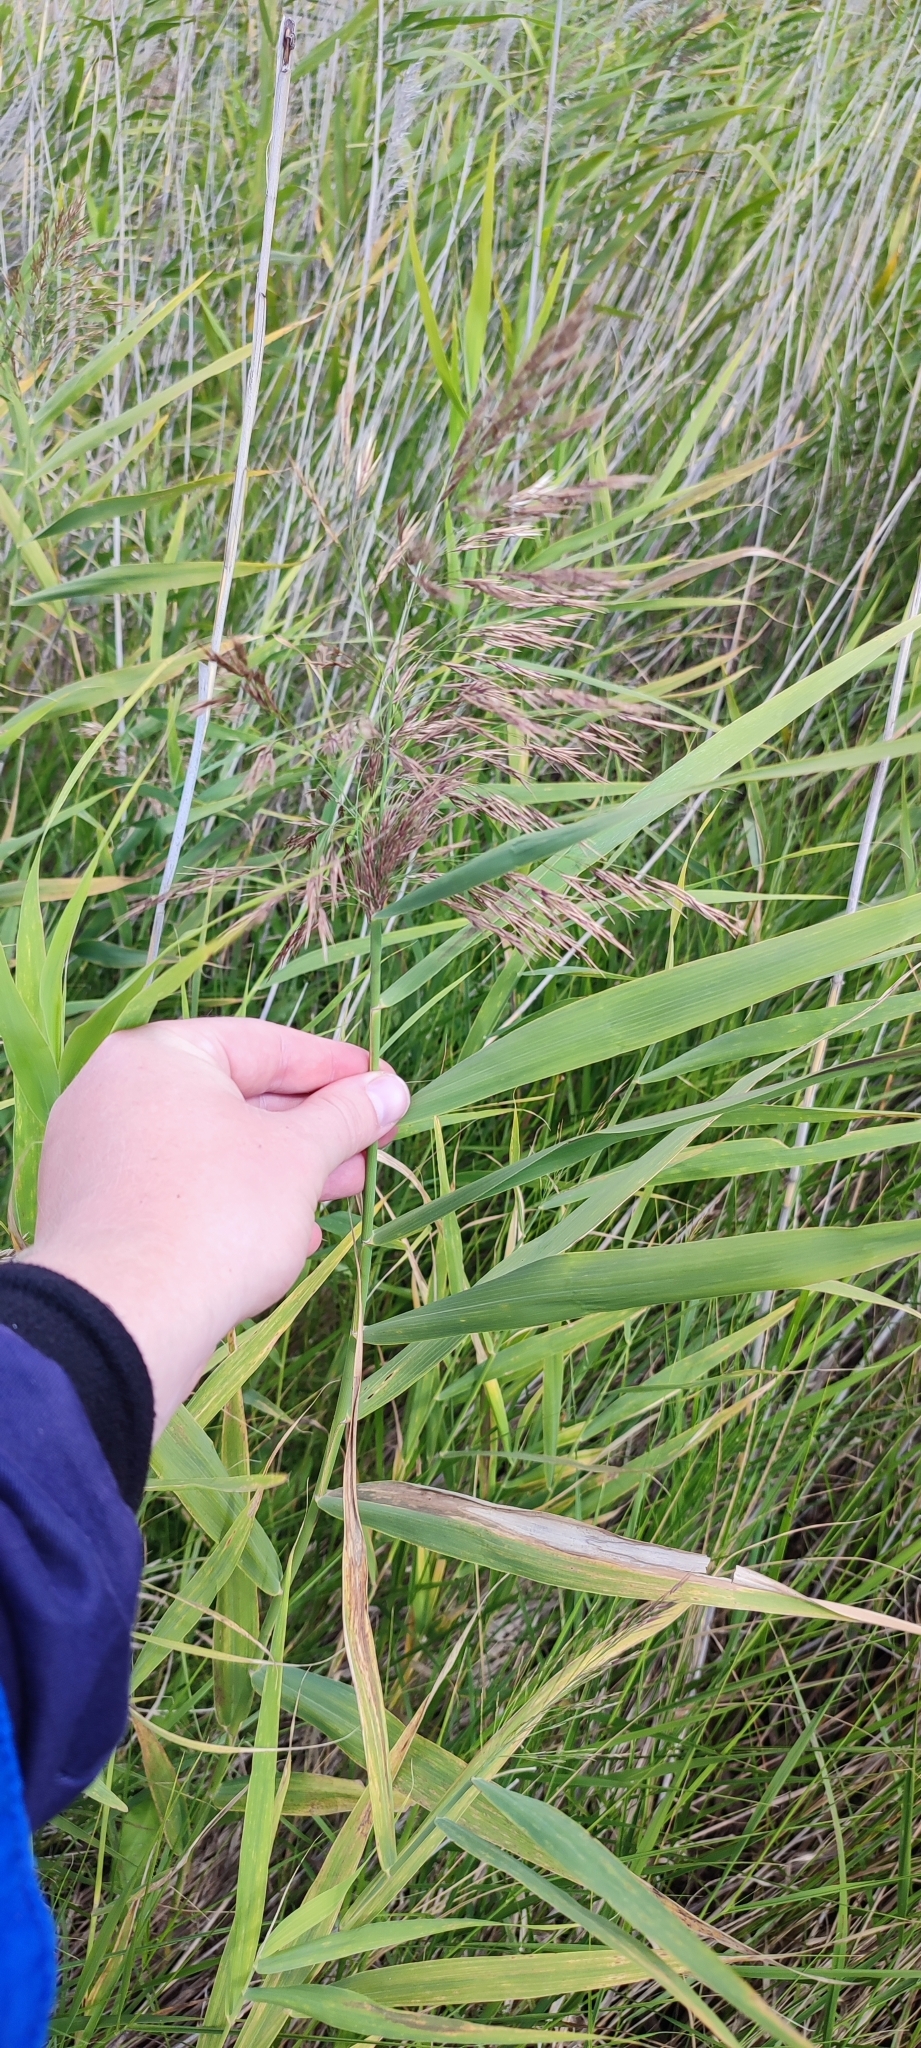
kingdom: Plantae
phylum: Tracheophyta
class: Liliopsida
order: Poales
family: Poaceae
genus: Phragmites
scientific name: Phragmites australis
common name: Common reed
